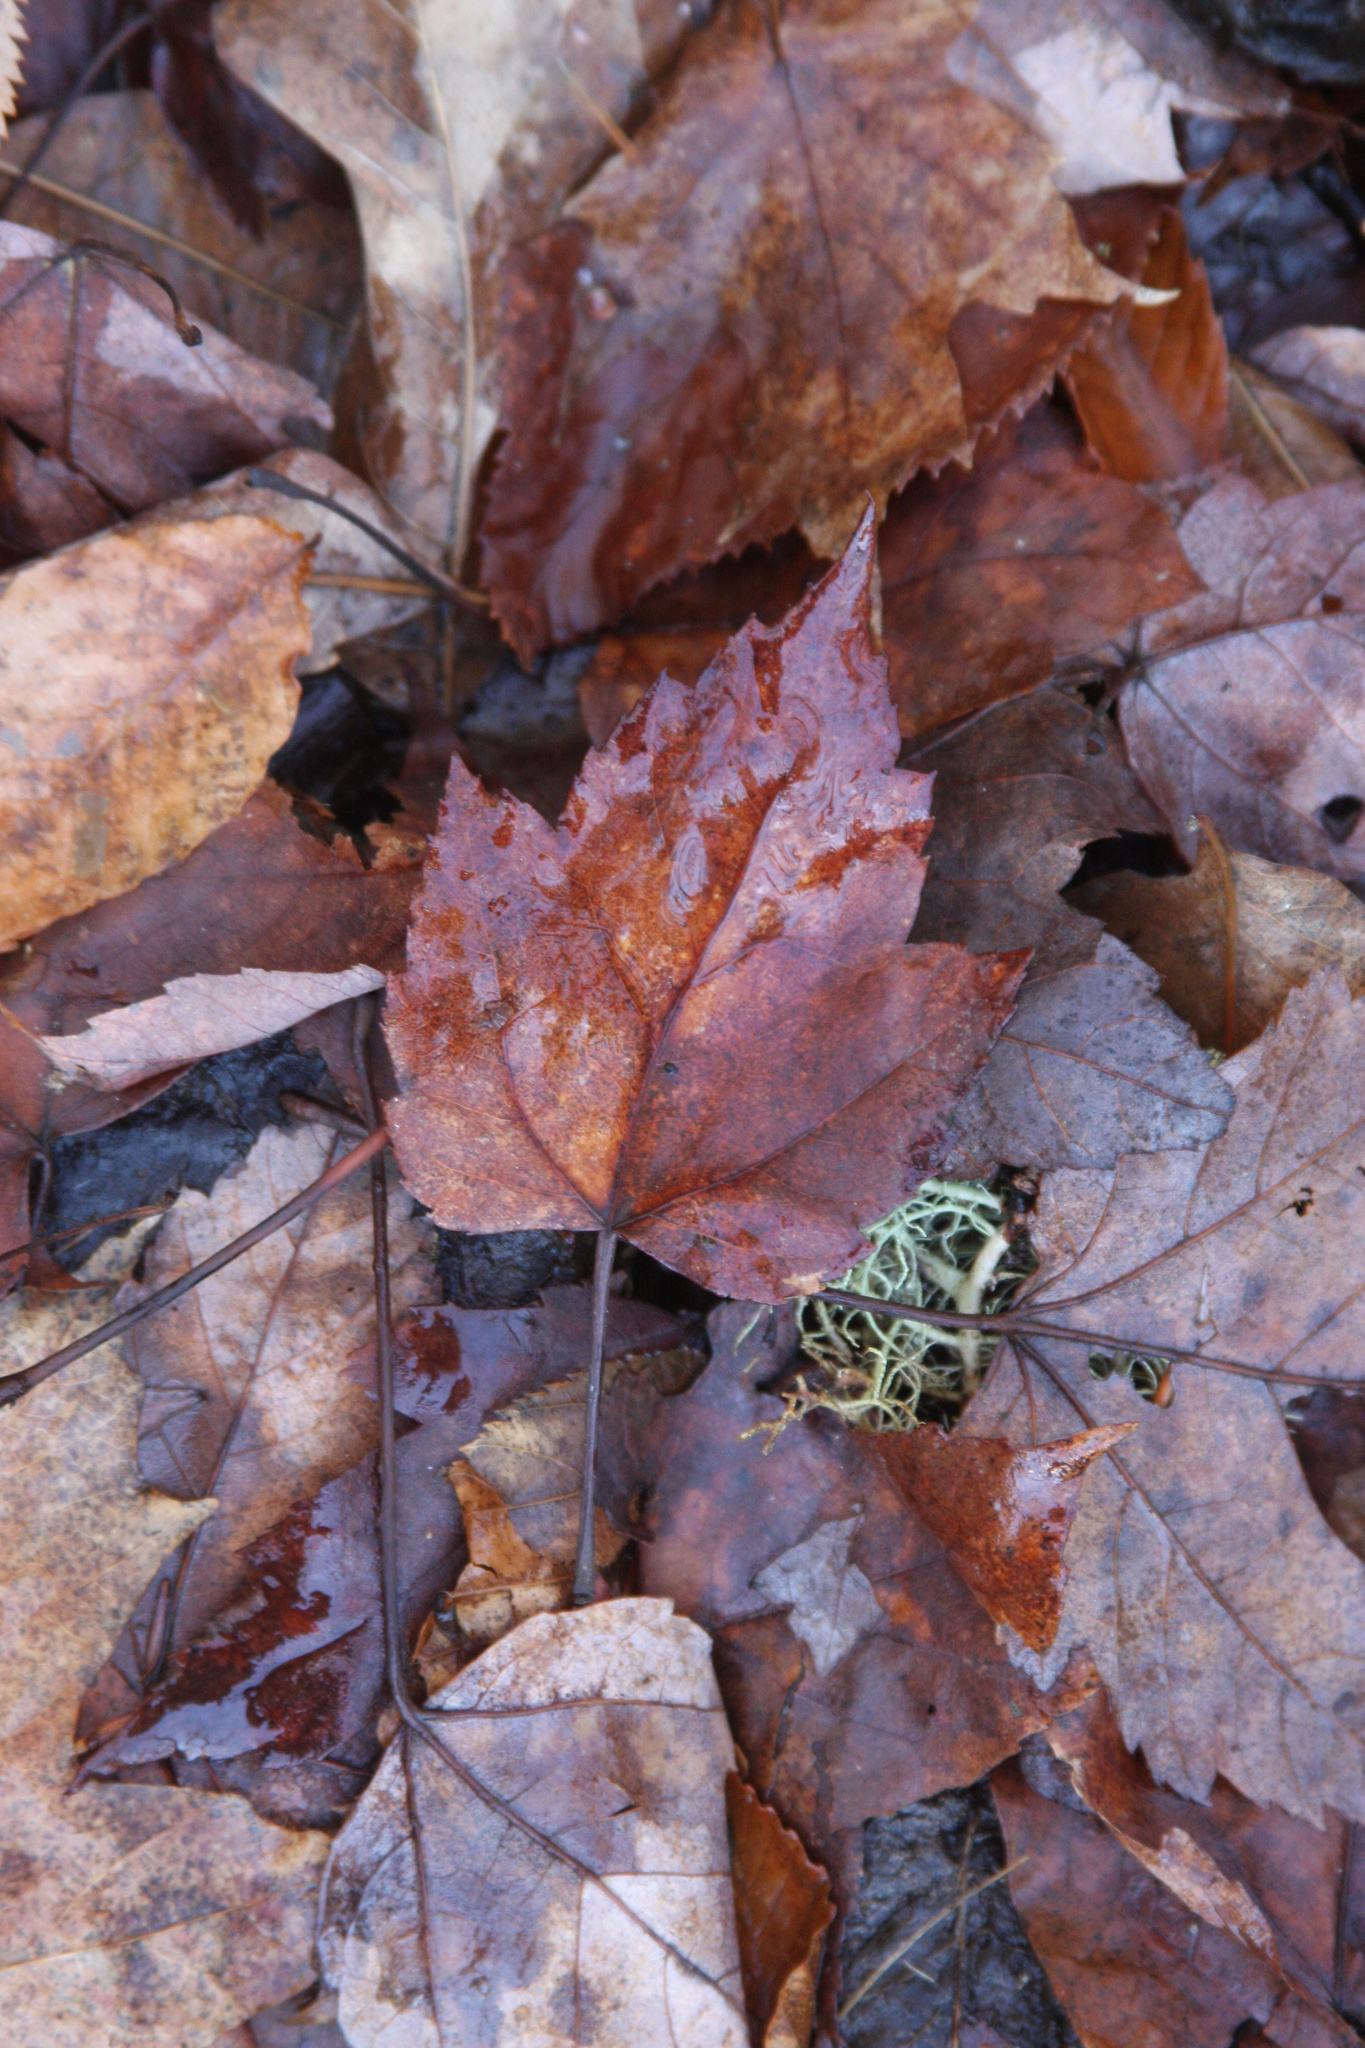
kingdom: Plantae
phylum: Tracheophyta
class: Magnoliopsida
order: Sapindales
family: Sapindaceae
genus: Acer
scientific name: Acer rubrum
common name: Red maple
